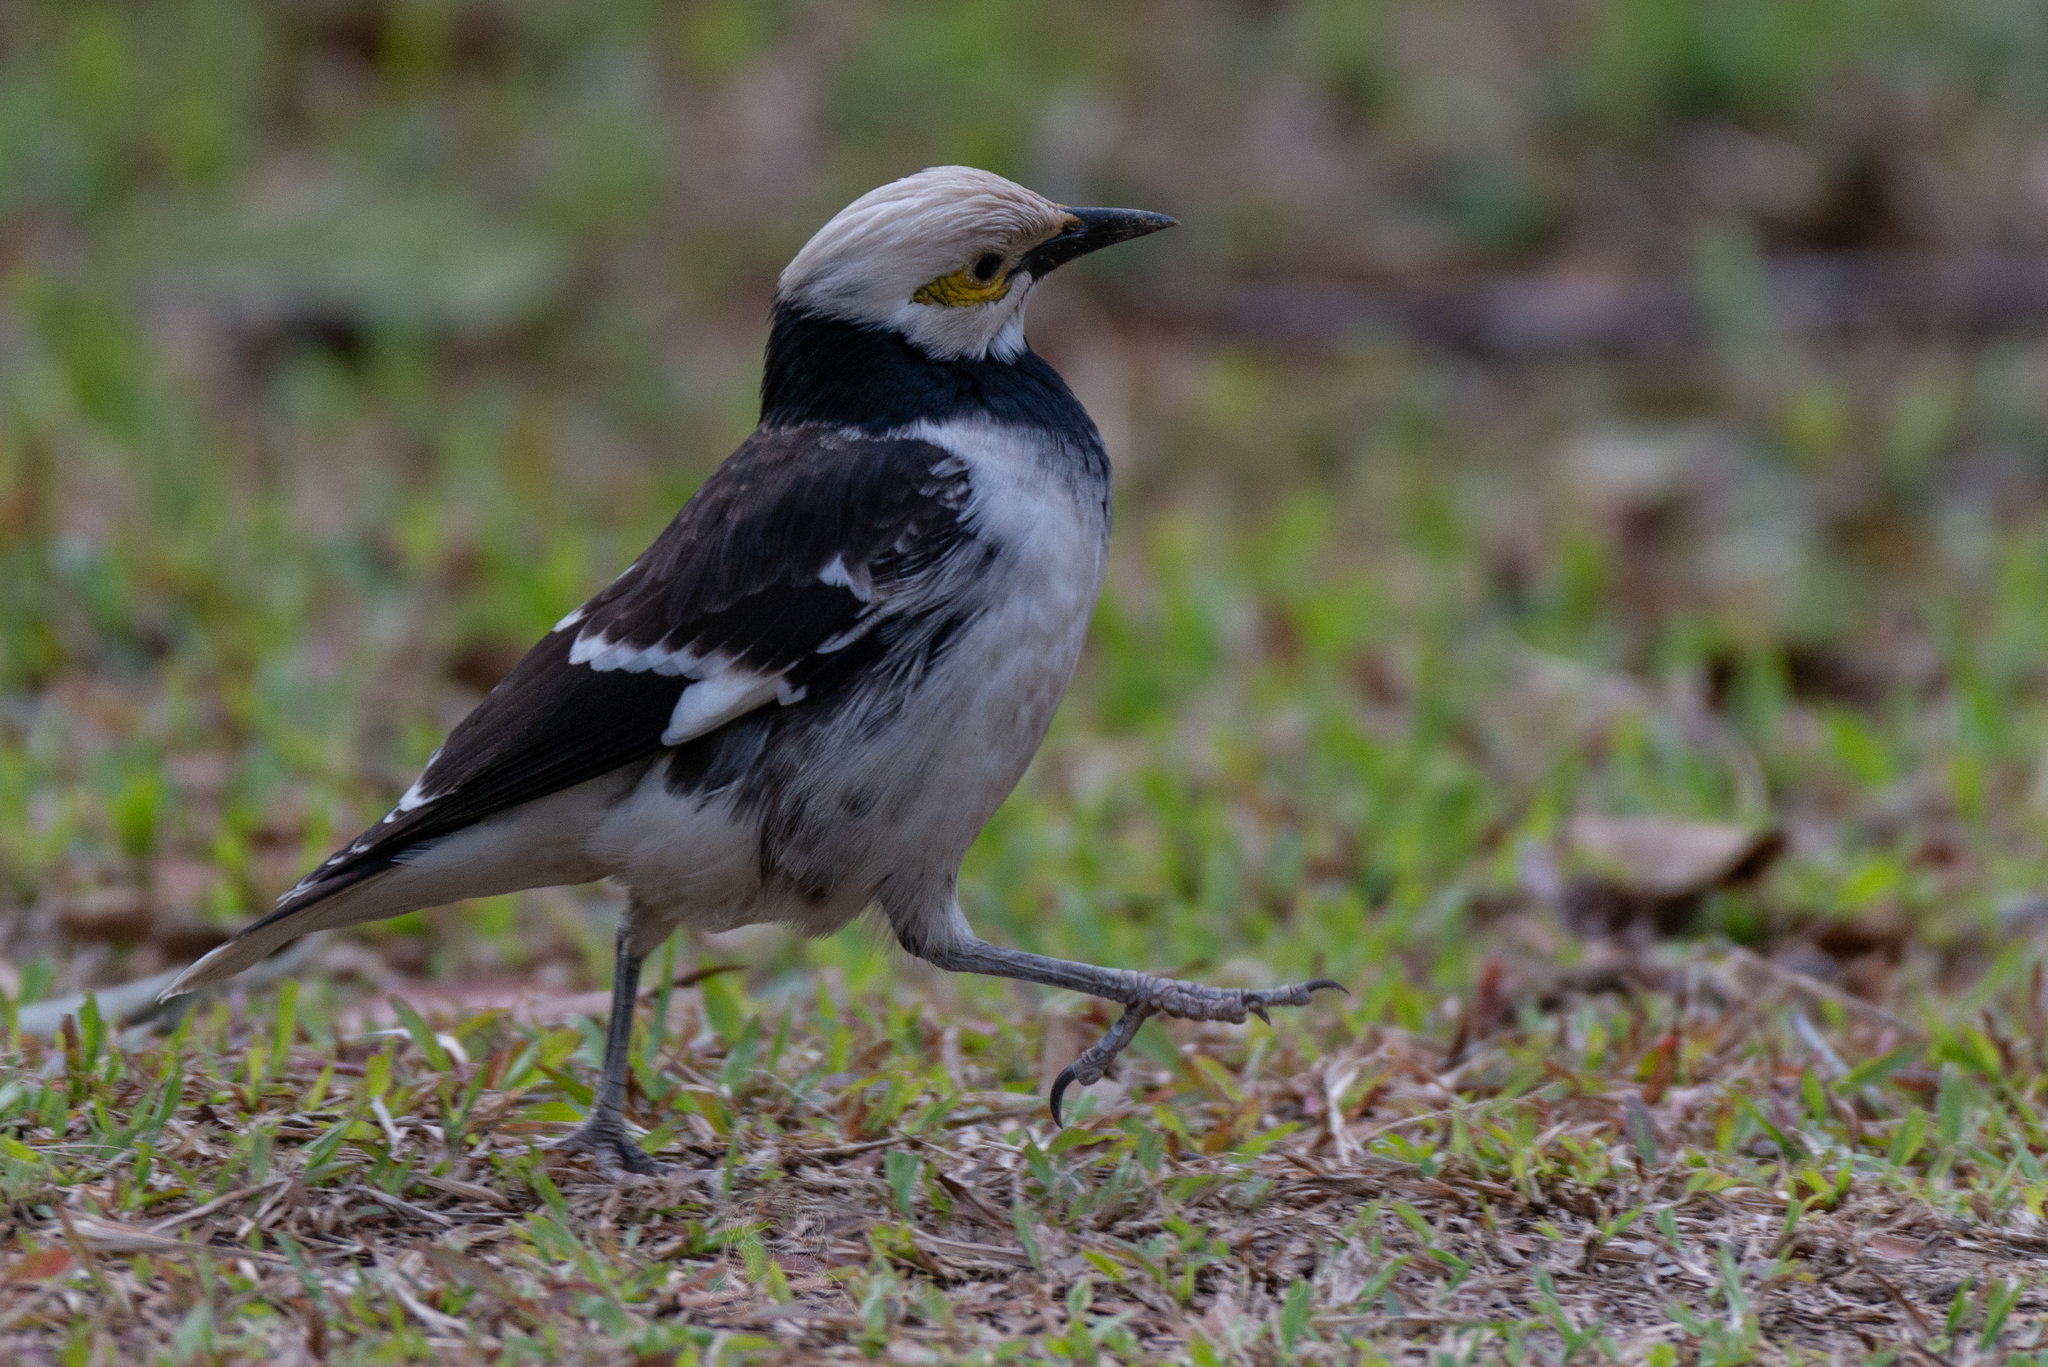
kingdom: Animalia
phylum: Chordata
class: Aves
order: Passeriformes
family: Sturnidae
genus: Gracupica
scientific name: Gracupica nigricollis
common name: Black-collared starling
